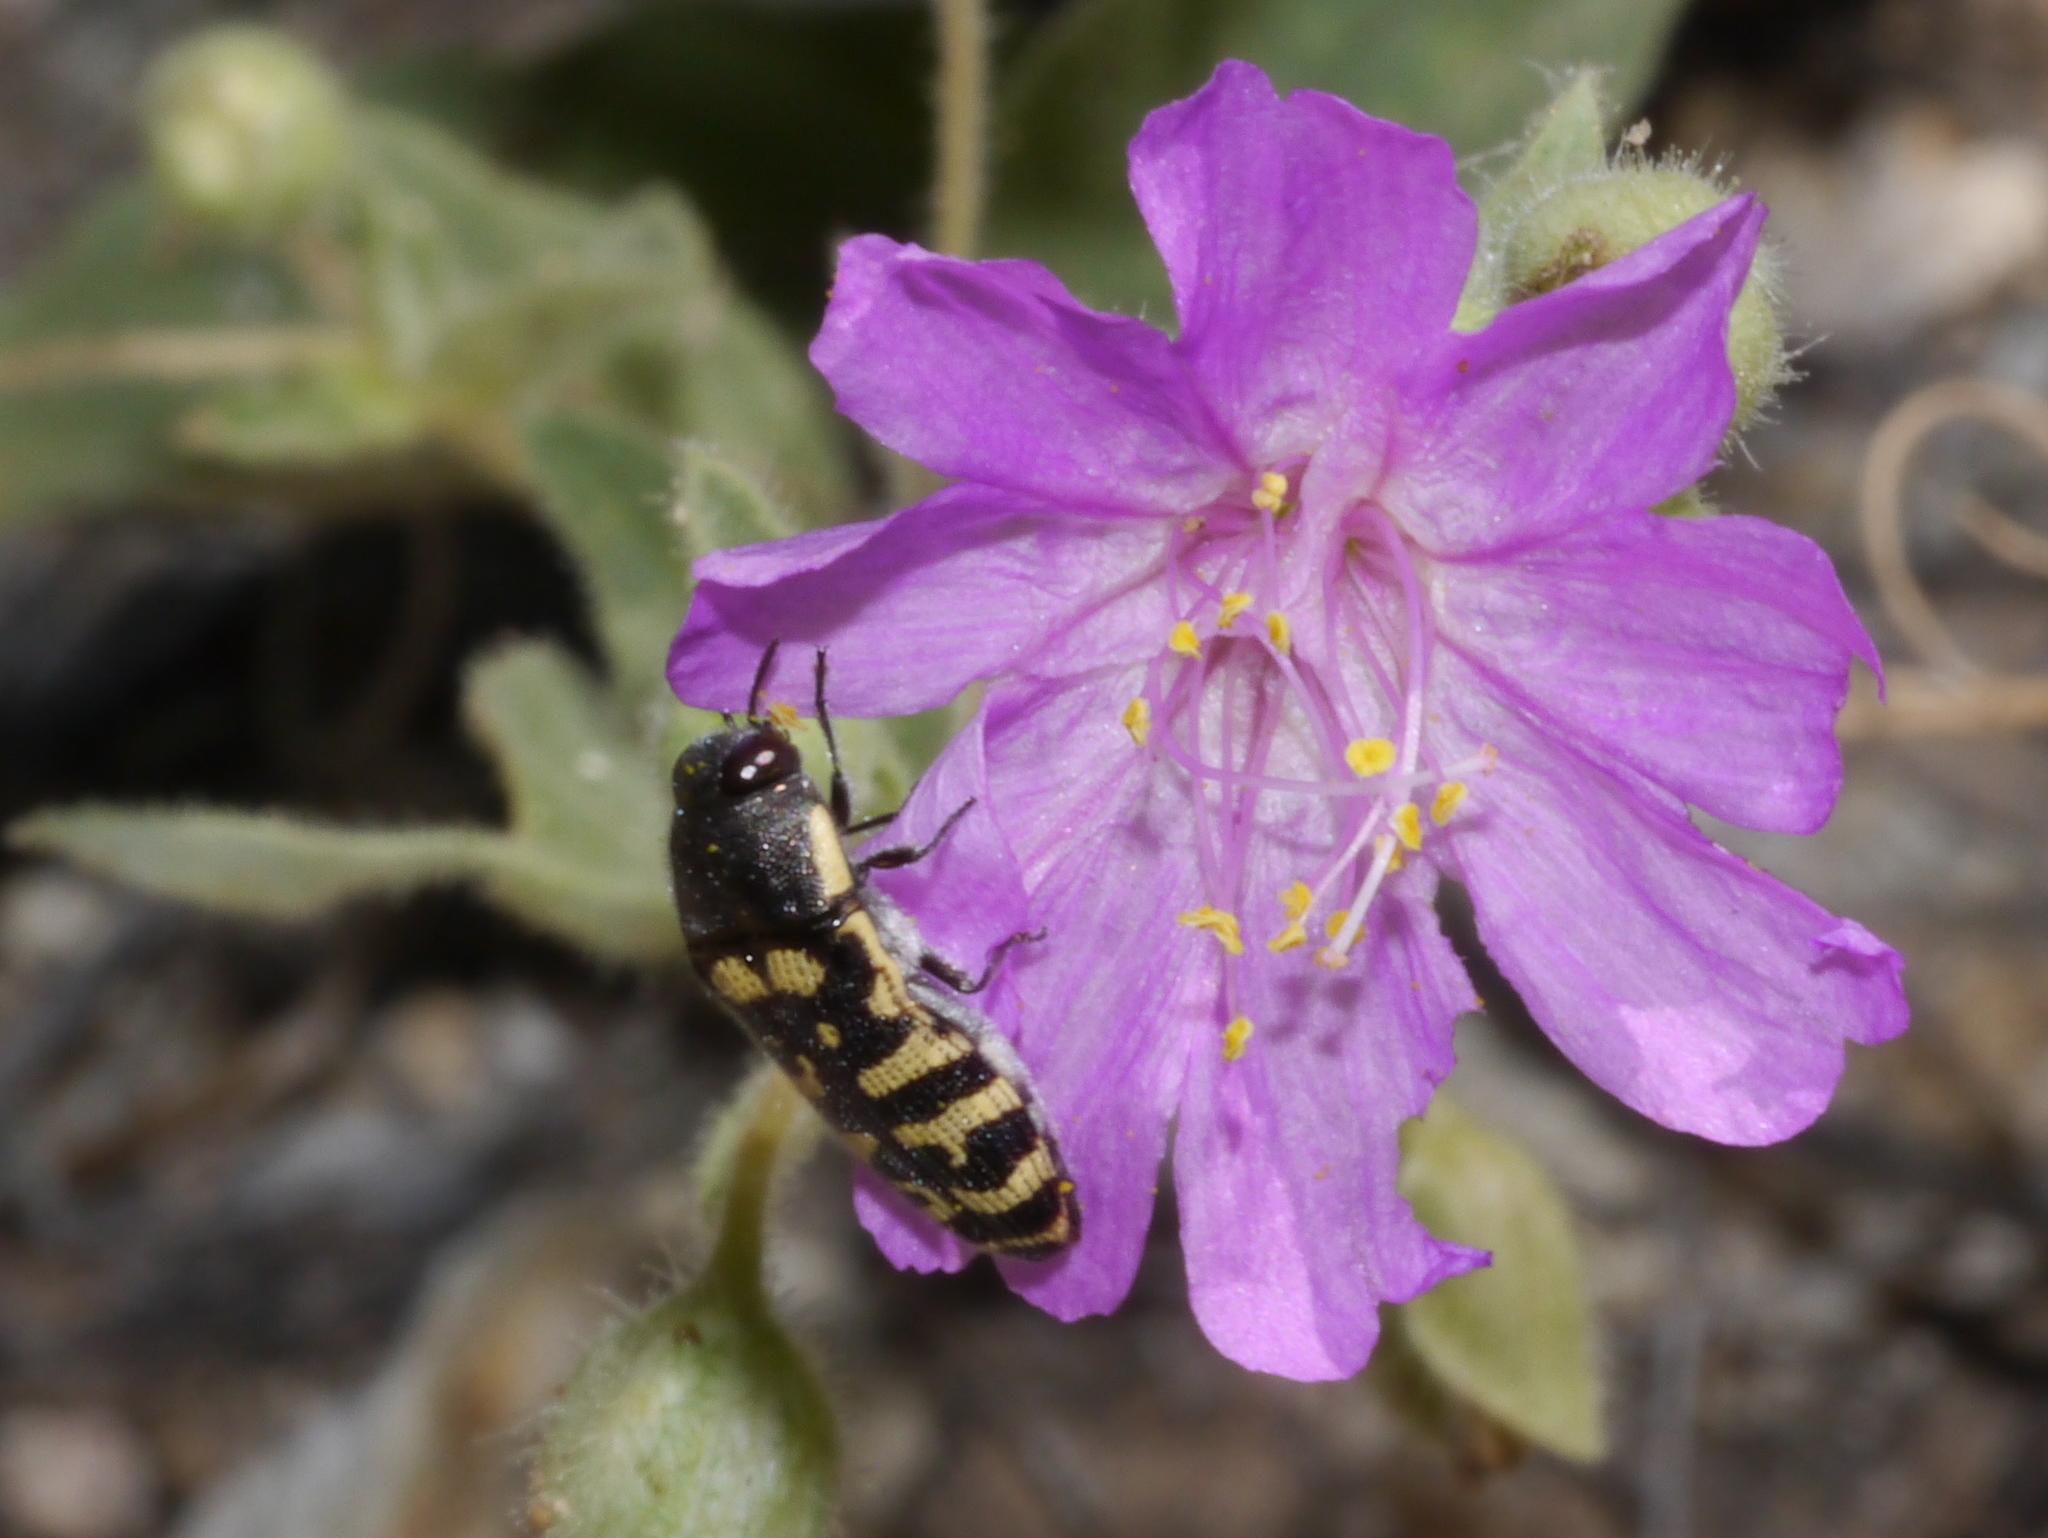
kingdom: Animalia
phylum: Arthropoda
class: Insecta
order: Coleoptera
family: Buprestidae
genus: Acmaeodera
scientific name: Acmaeodera alicia
